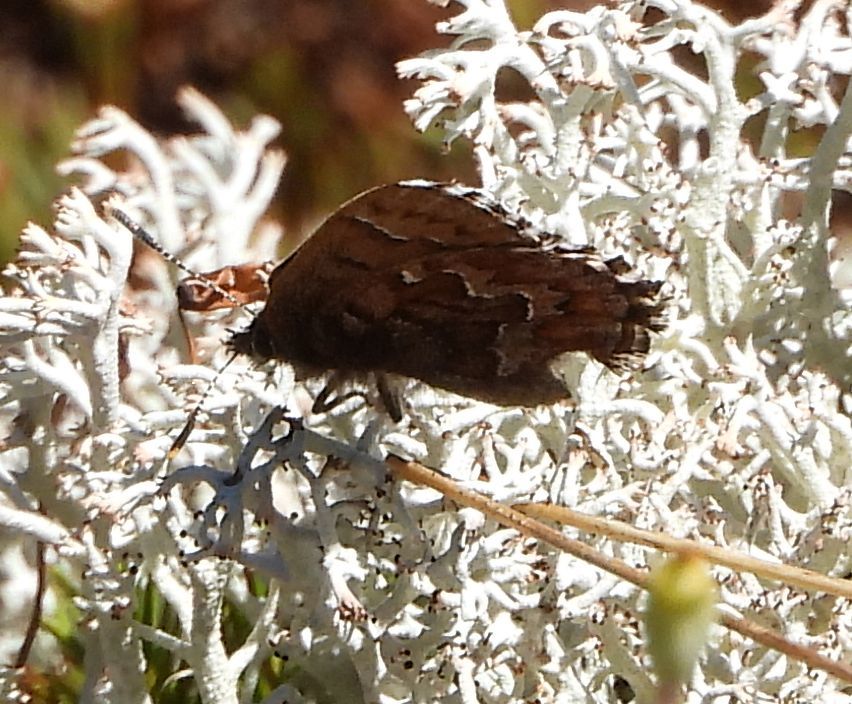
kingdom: Animalia
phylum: Arthropoda
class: Insecta
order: Lepidoptera
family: Lycaenidae
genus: Incisalia
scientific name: Incisalia niphon
